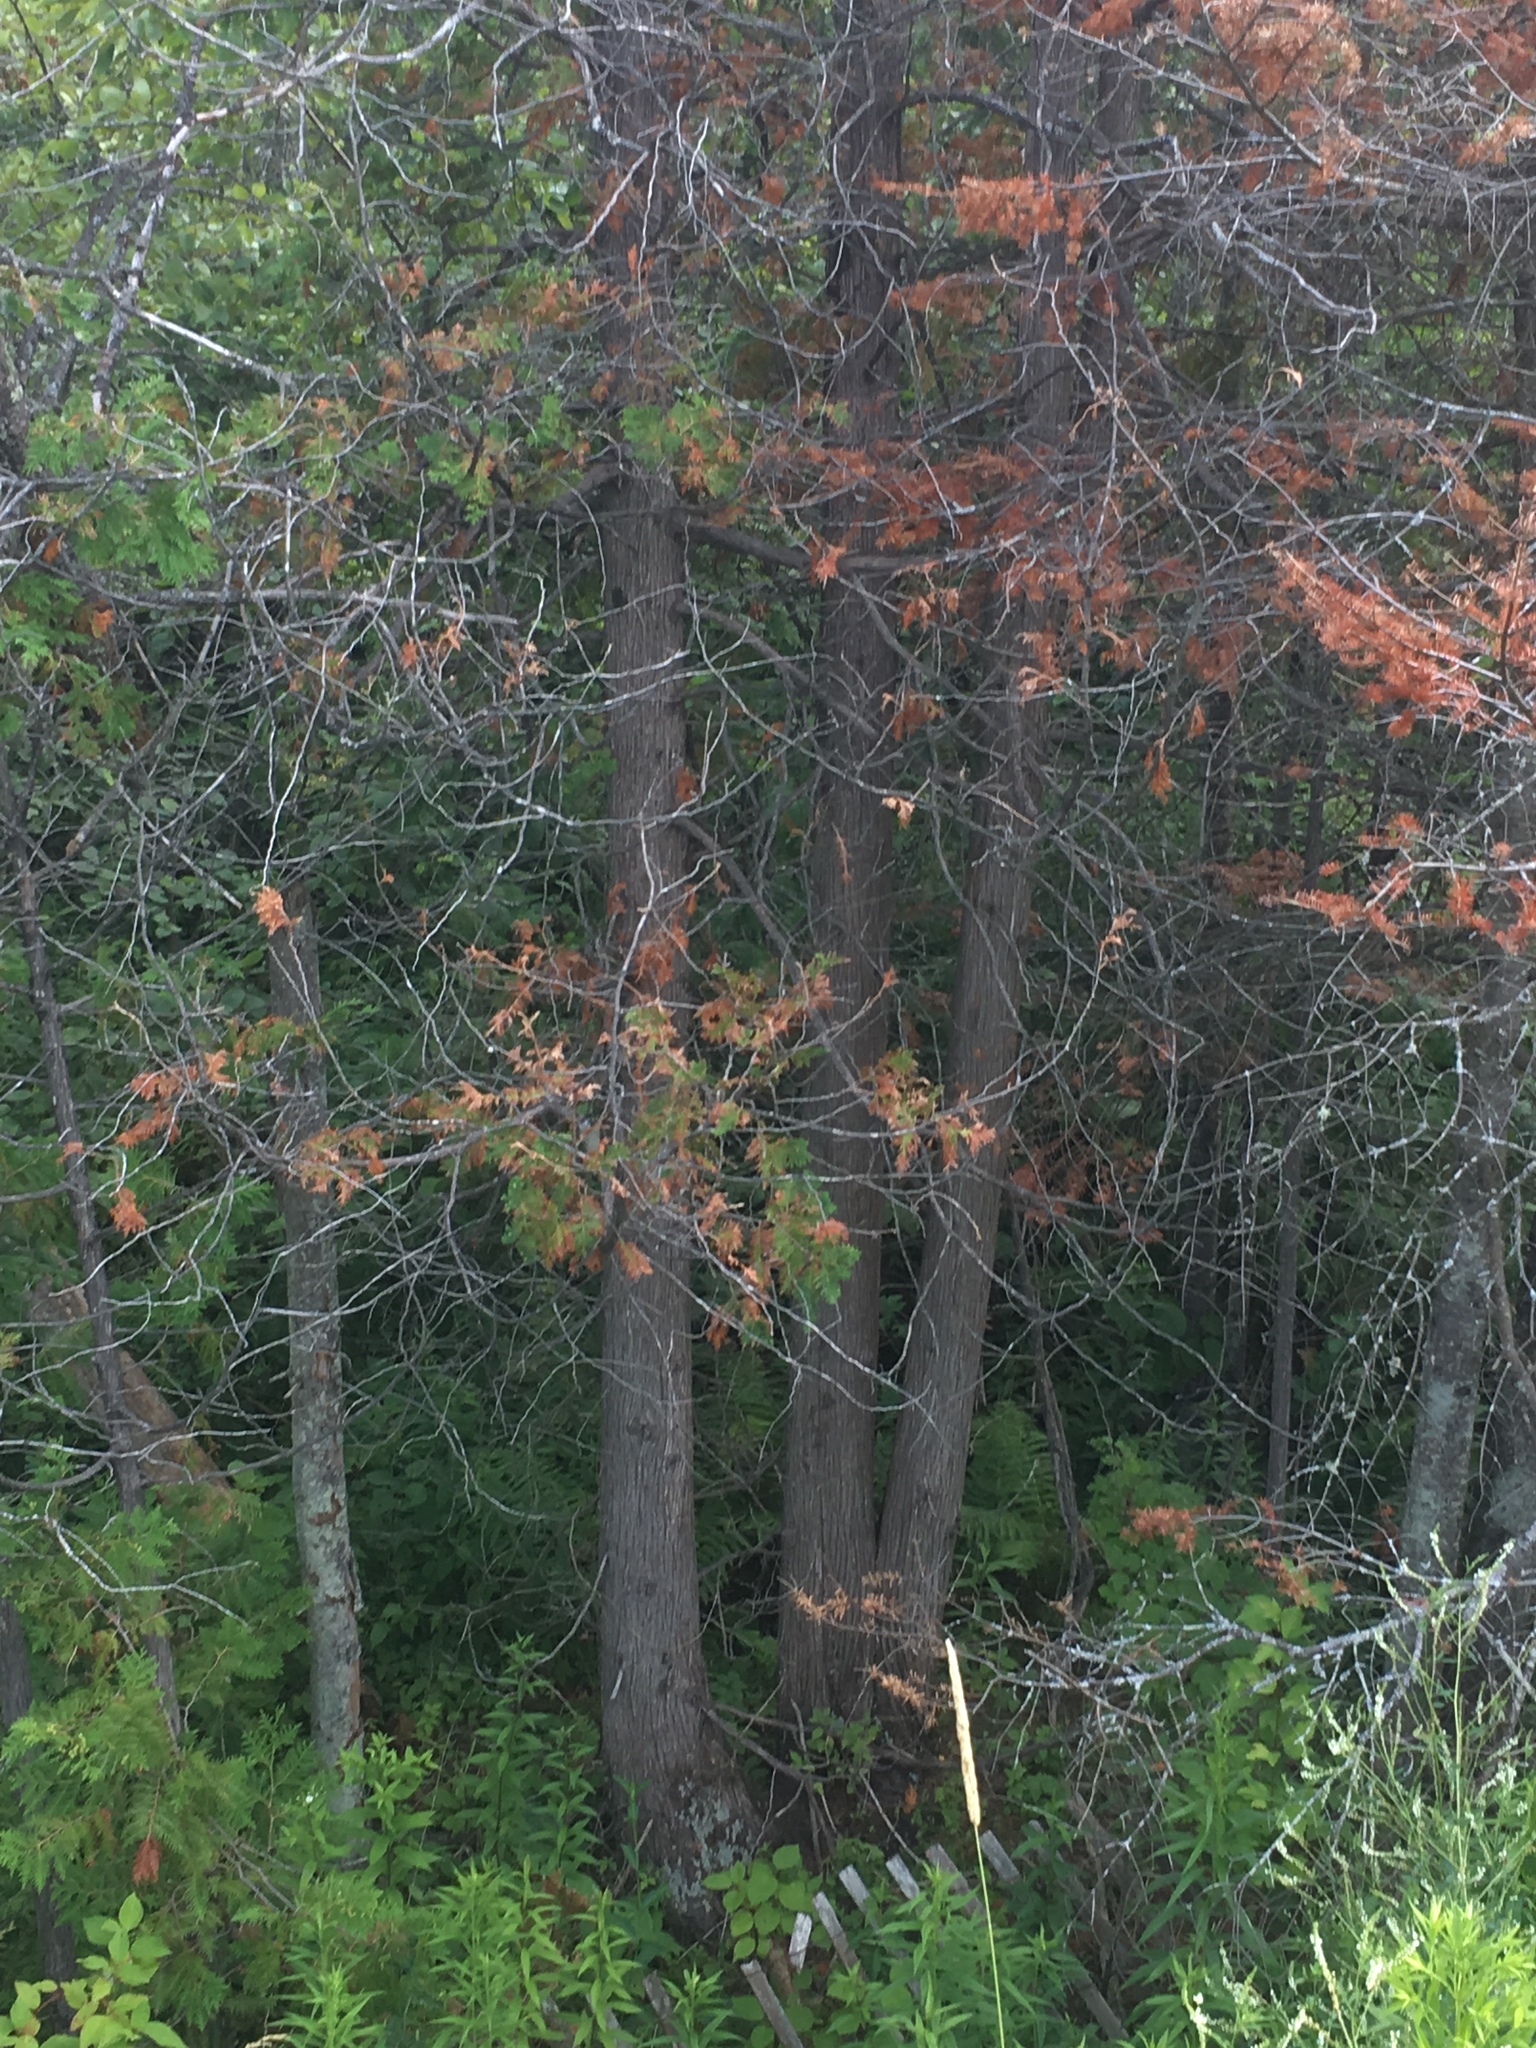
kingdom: Plantae
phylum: Tracheophyta
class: Pinopsida
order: Pinales
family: Cupressaceae
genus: Thuja
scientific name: Thuja occidentalis
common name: Northern white-cedar
